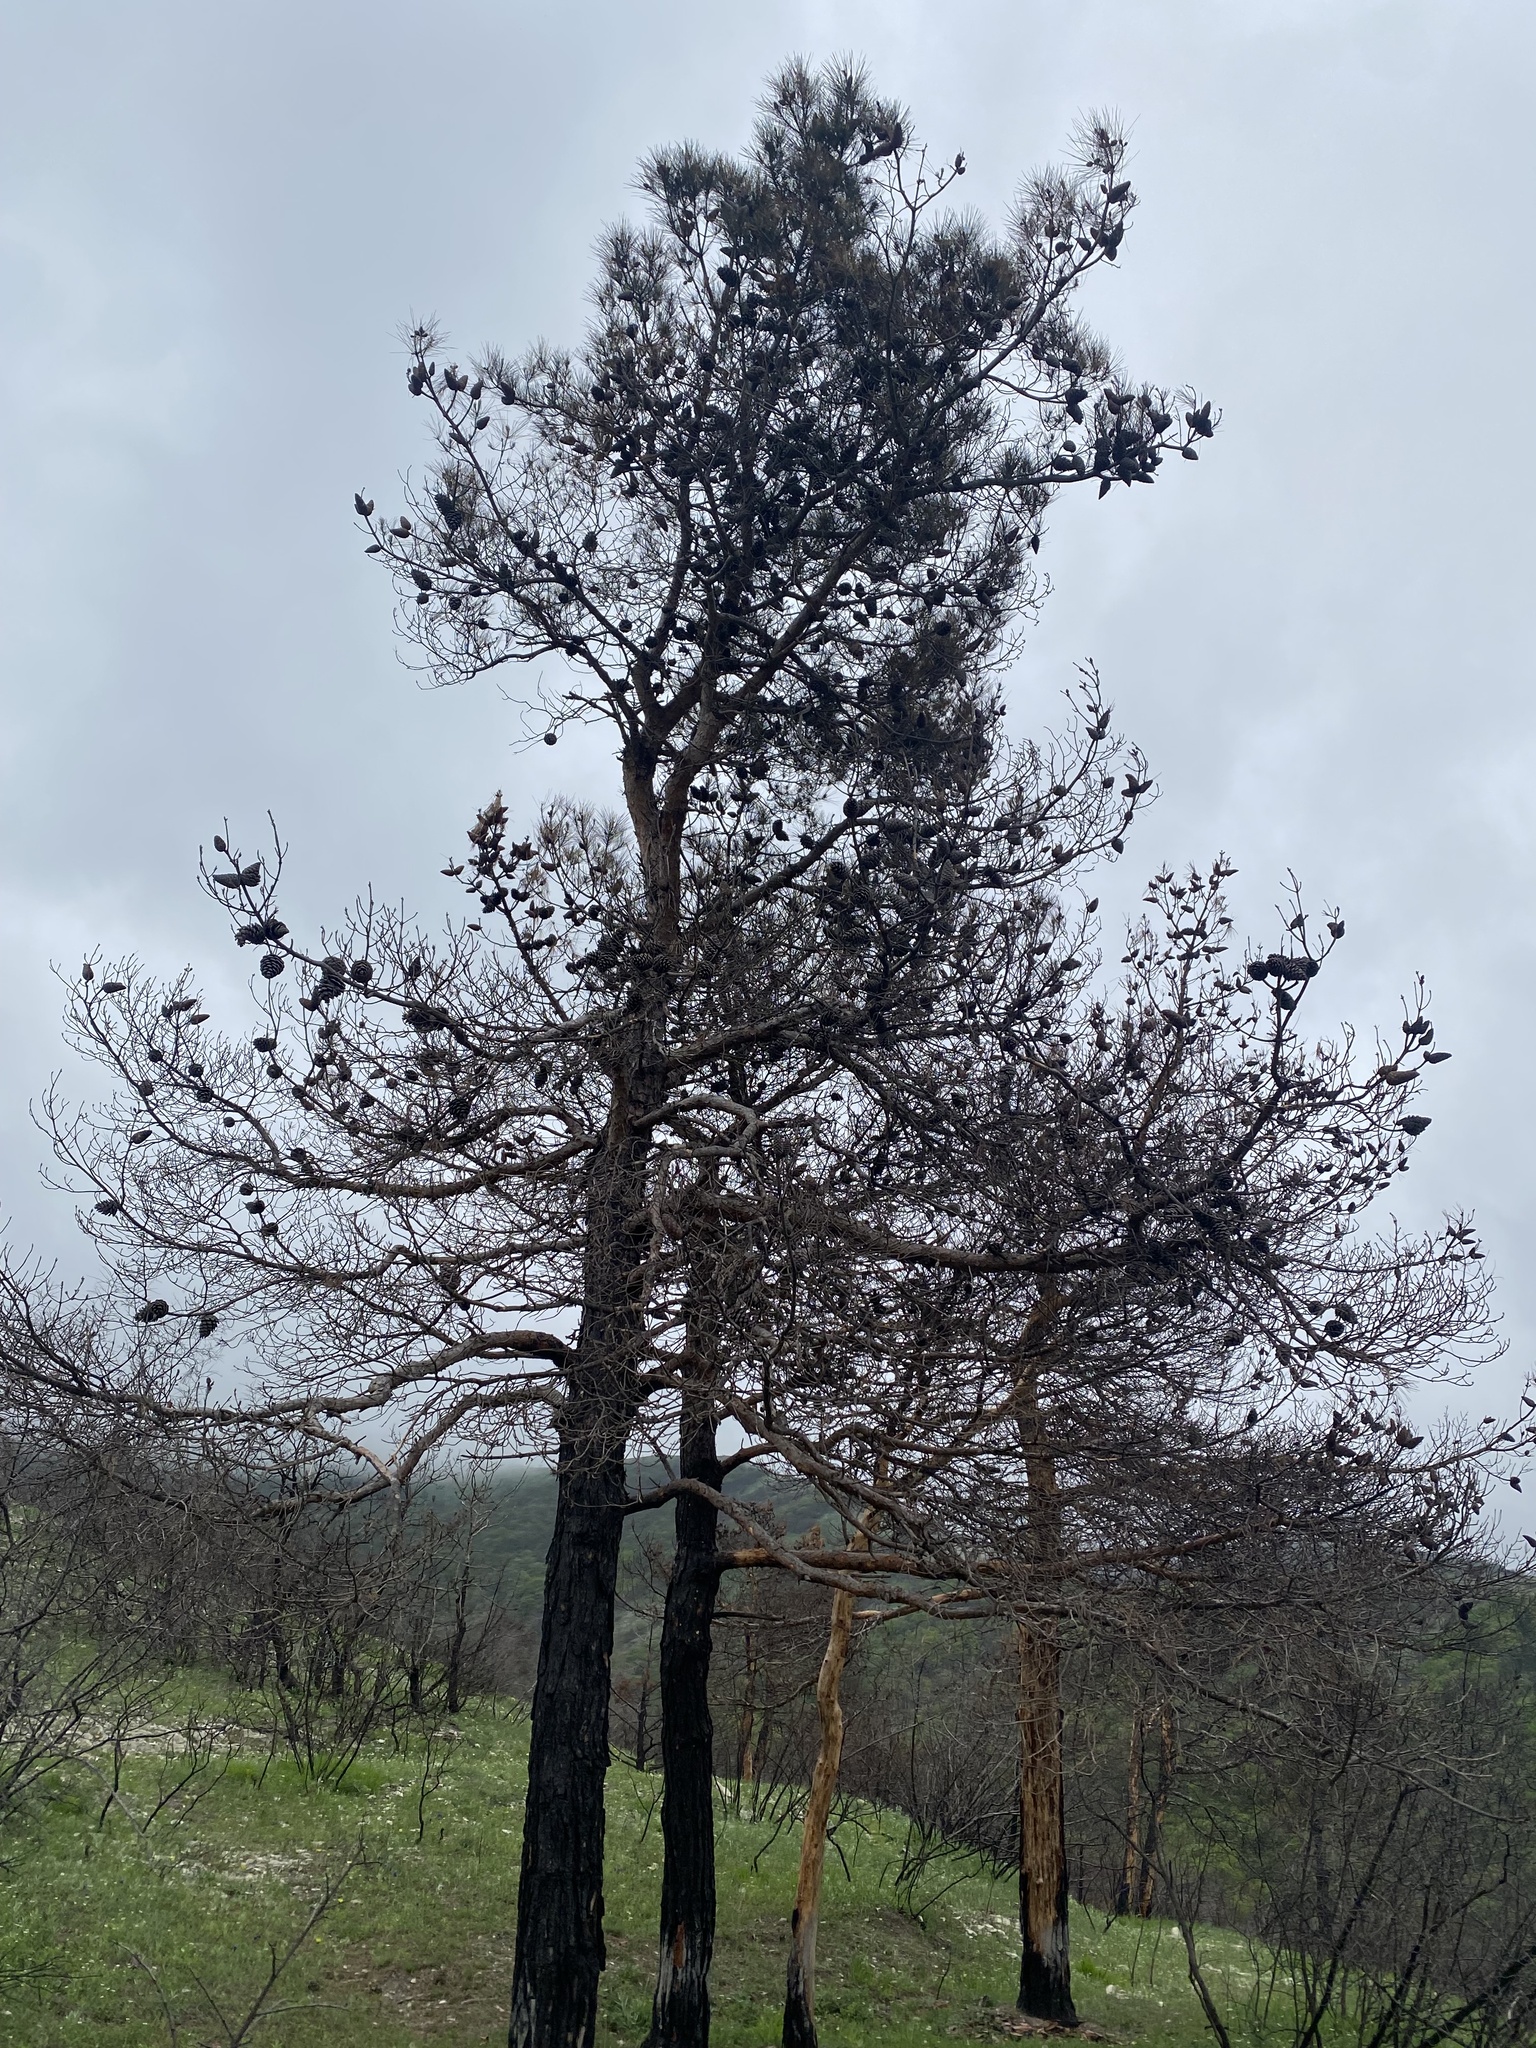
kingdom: Plantae
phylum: Tracheophyta
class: Pinopsida
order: Pinales
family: Pinaceae
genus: Pinus
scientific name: Pinus brutia
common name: Turkish pine
